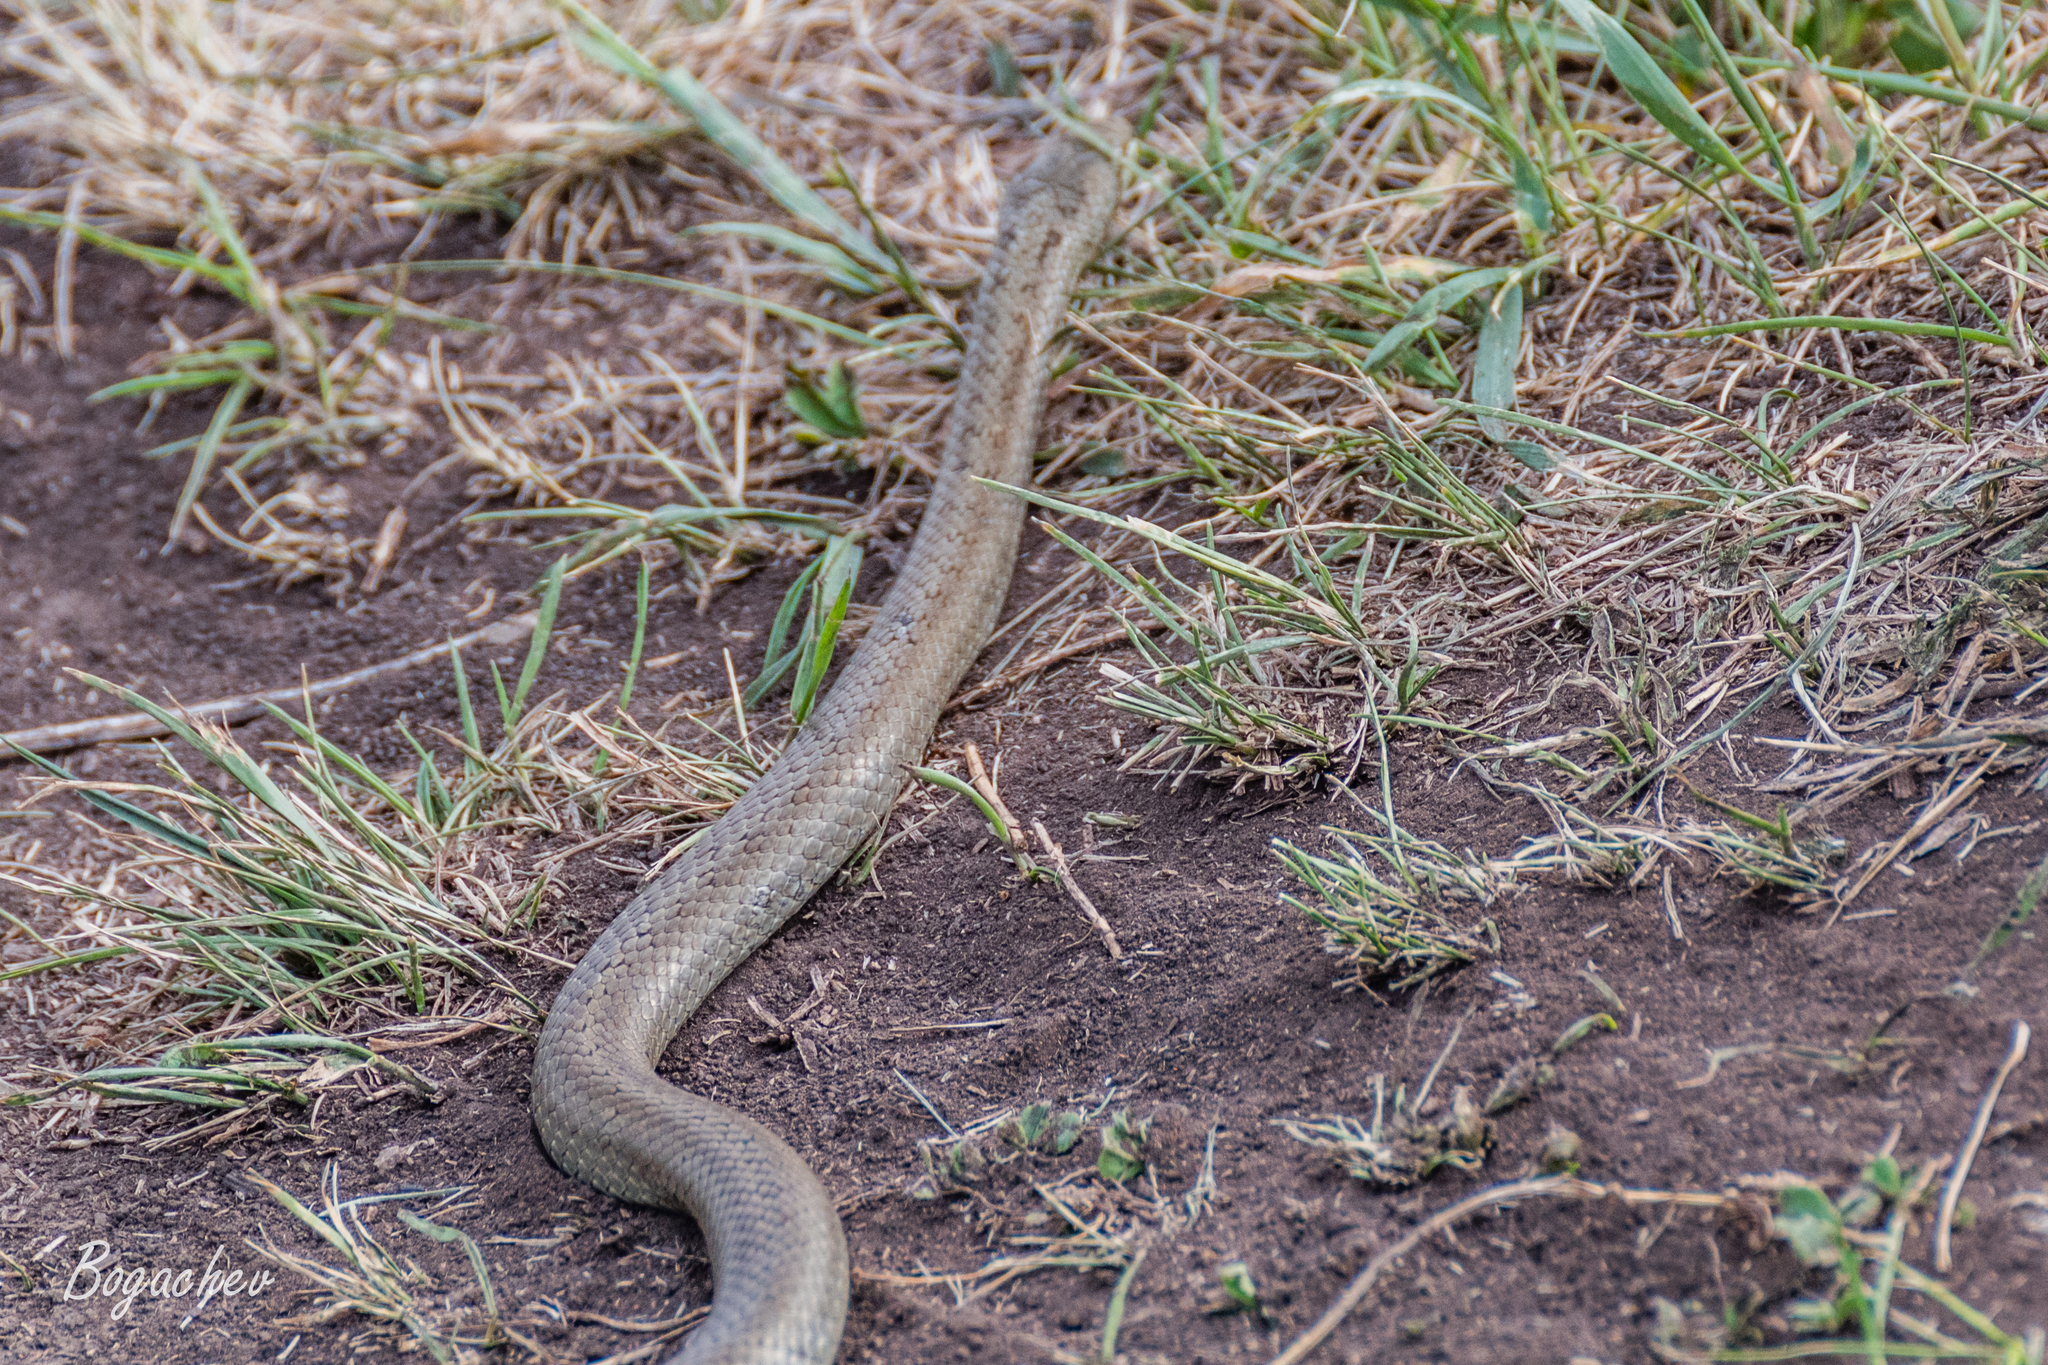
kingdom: Animalia
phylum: Chordata
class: Squamata
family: Colubridae
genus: Coronella
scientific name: Coronella austriaca
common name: Smooth snake
